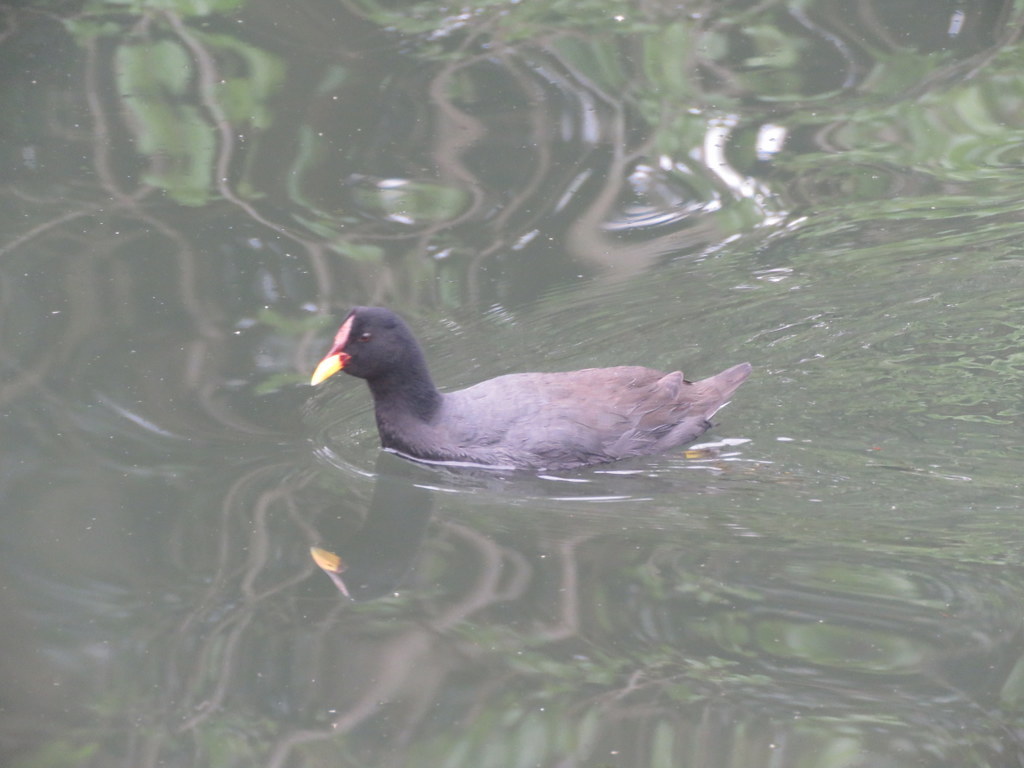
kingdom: Animalia
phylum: Chordata
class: Aves
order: Gruiformes
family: Rallidae
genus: Fulica
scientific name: Fulica rufifrons
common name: Red-fronted coot
